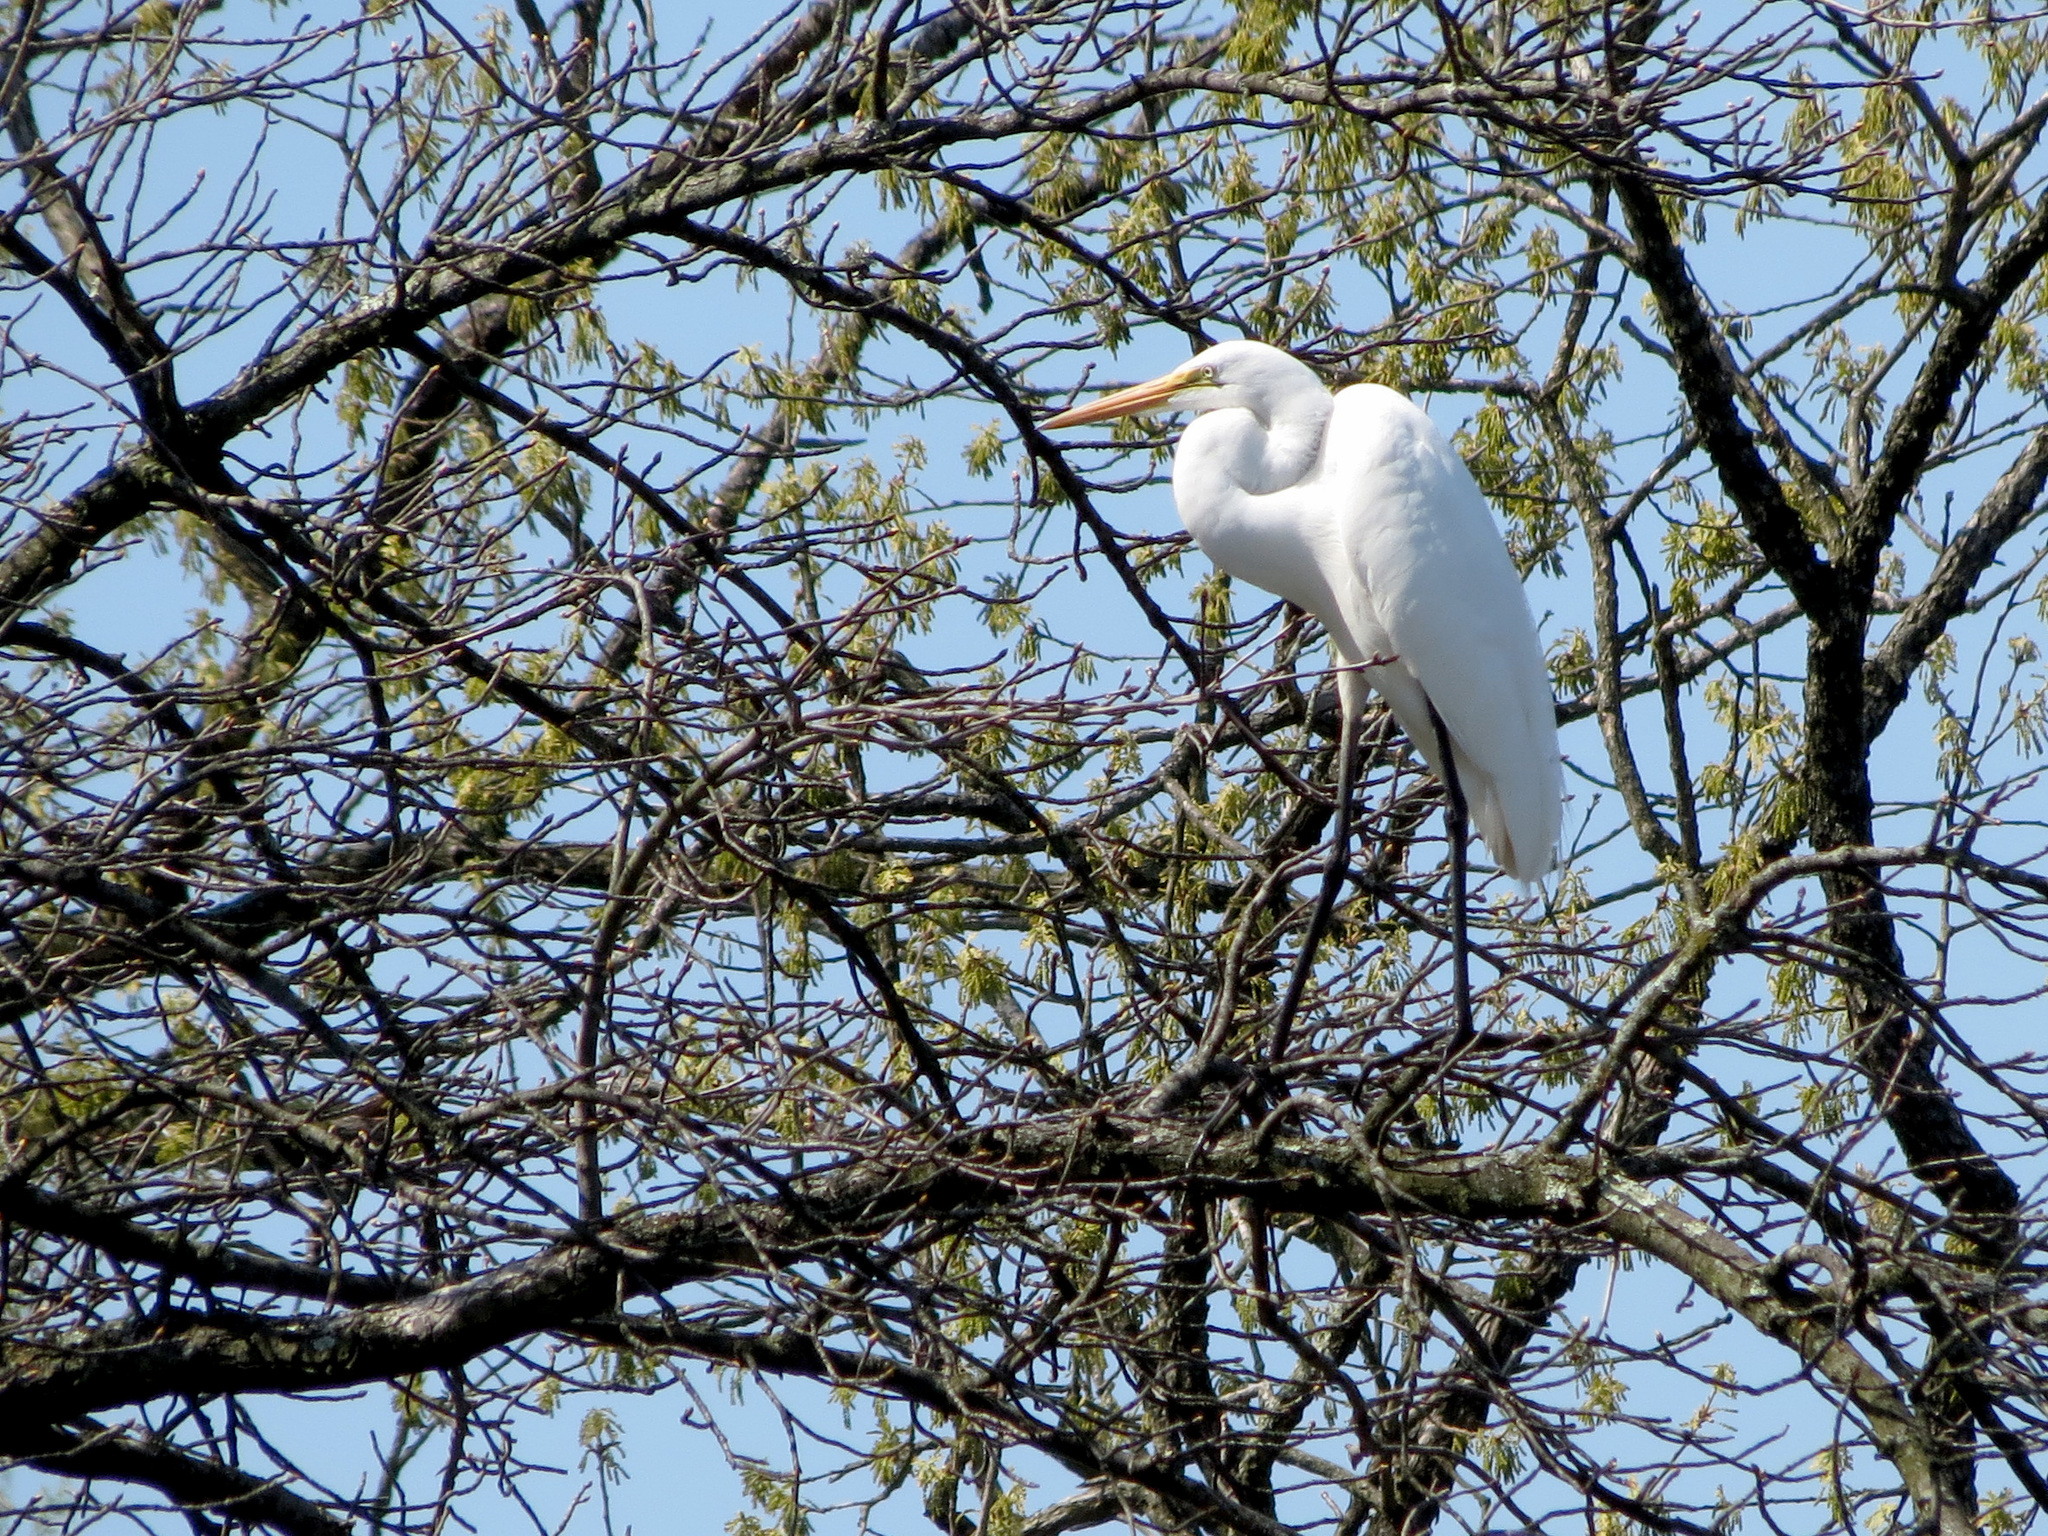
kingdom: Animalia
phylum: Chordata
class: Aves
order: Pelecaniformes
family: Ardeidae
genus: Ardea
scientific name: Ardea alba
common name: Great egret
